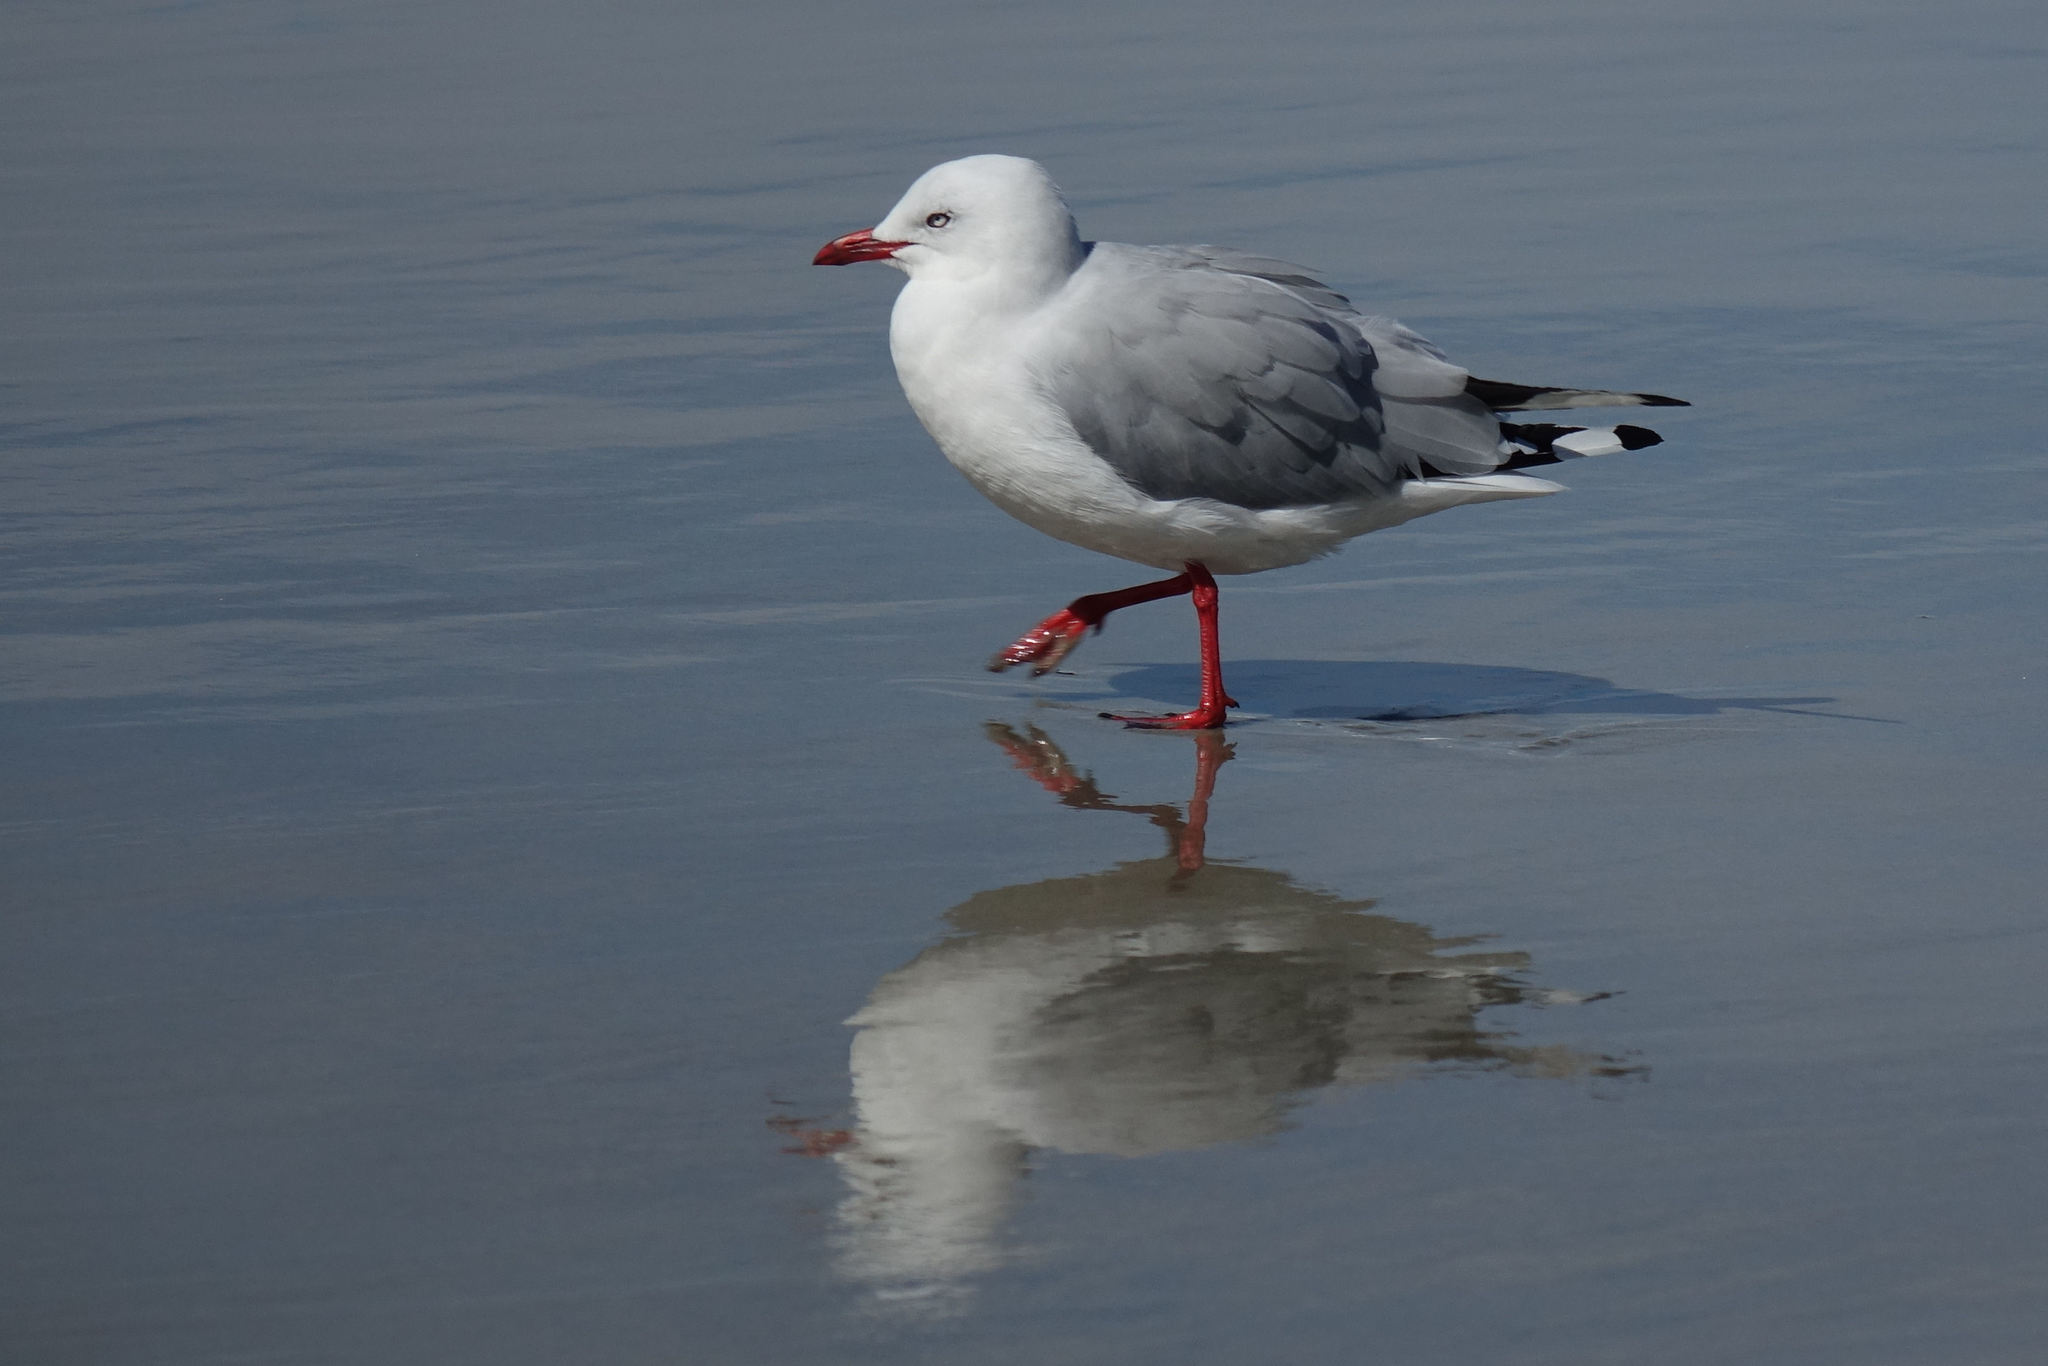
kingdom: Animalia
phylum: Chordata
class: Aves
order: Charadriiformes
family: Laridae
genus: Chroicocephalus
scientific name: Chroicocephalus novaehollandiae
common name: Silver gull
